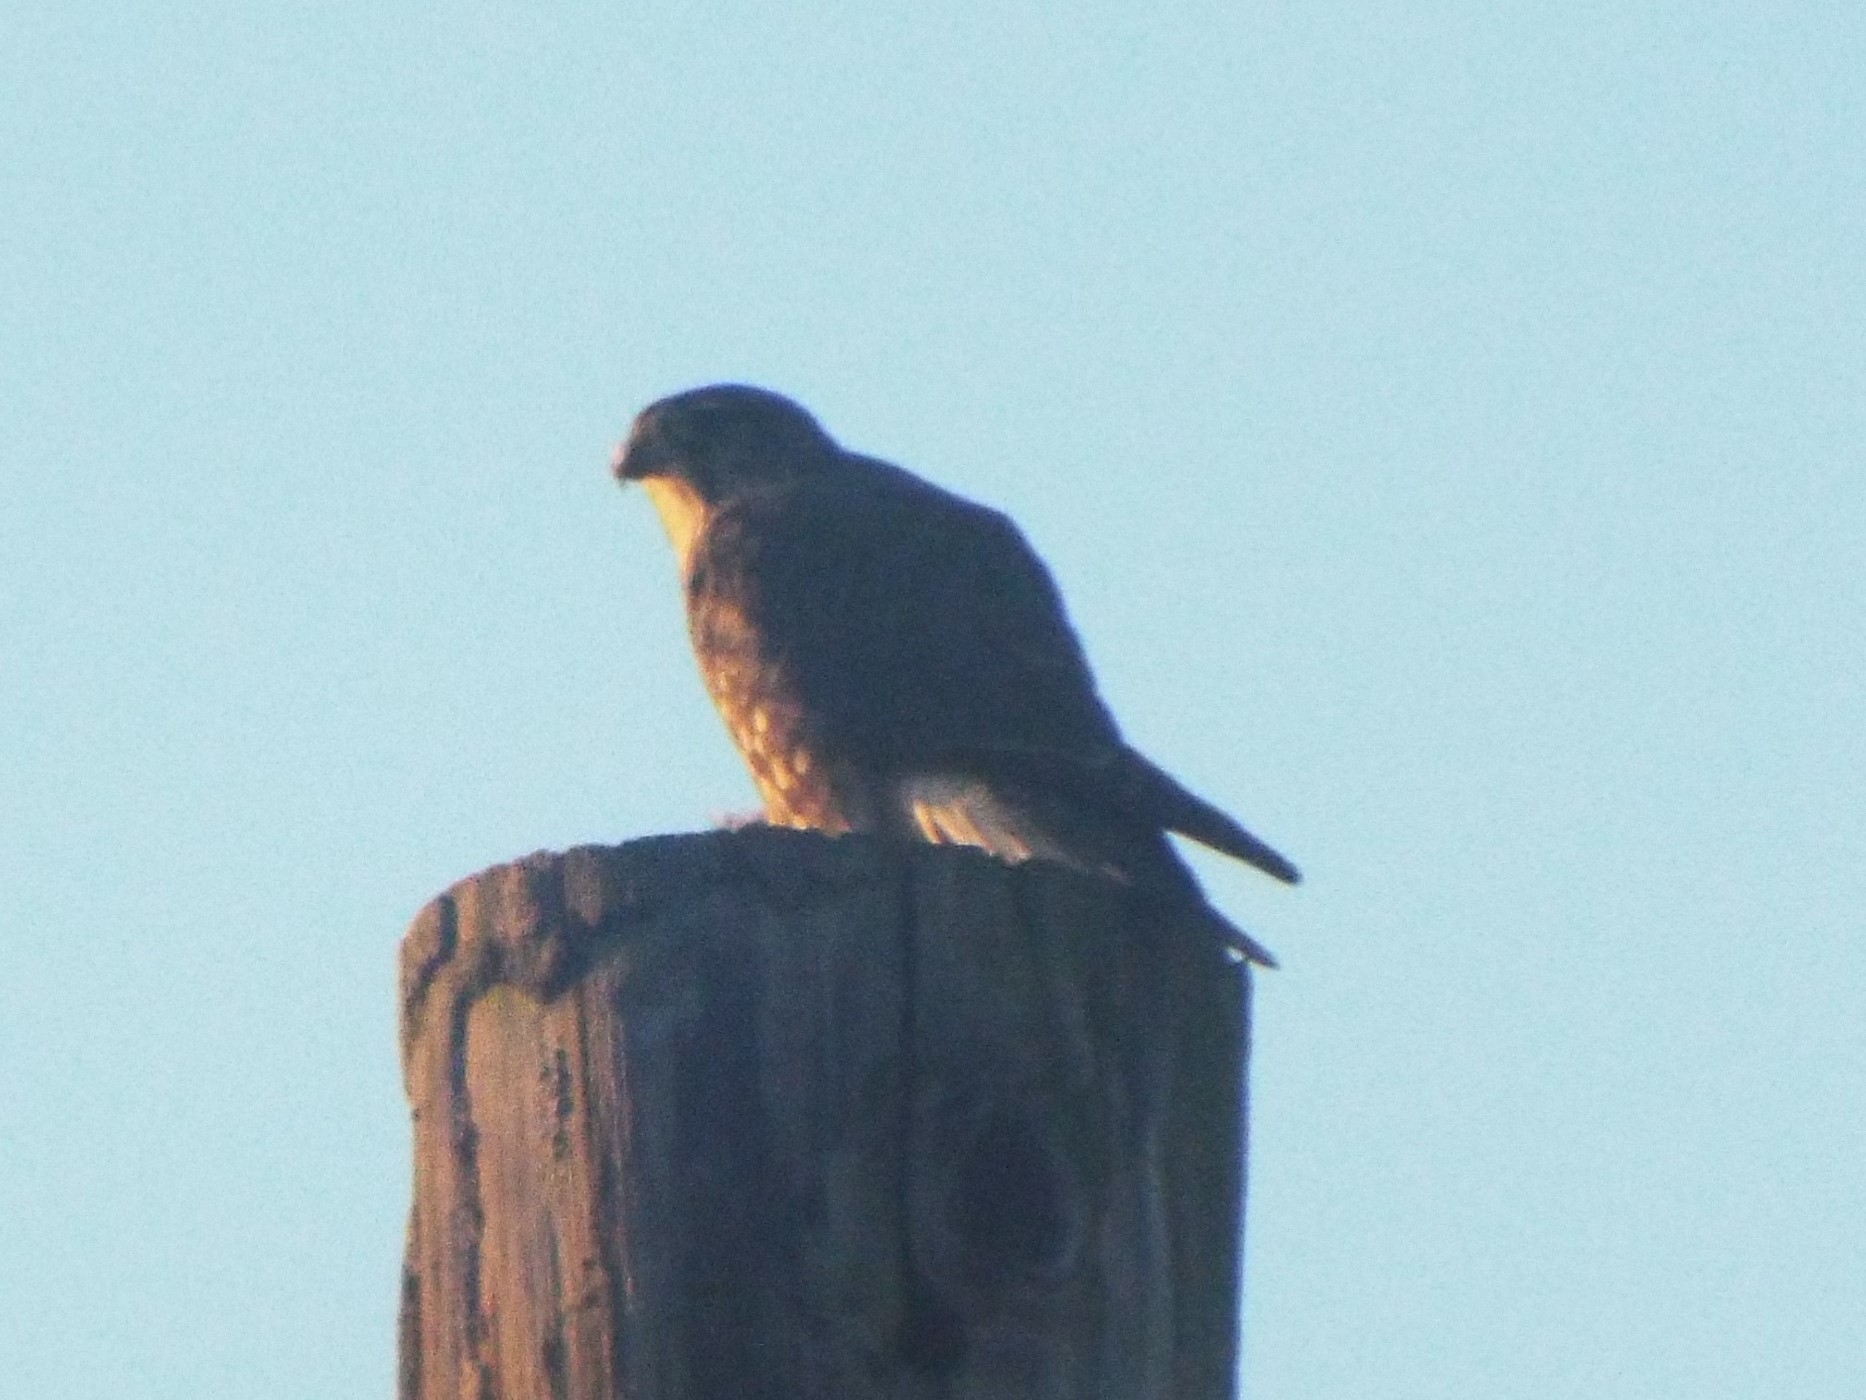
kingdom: Animalia
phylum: Chordata
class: Aves
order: Falconiformes
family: Falconidae
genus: Falco
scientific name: Falco columbarius
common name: Merlin
